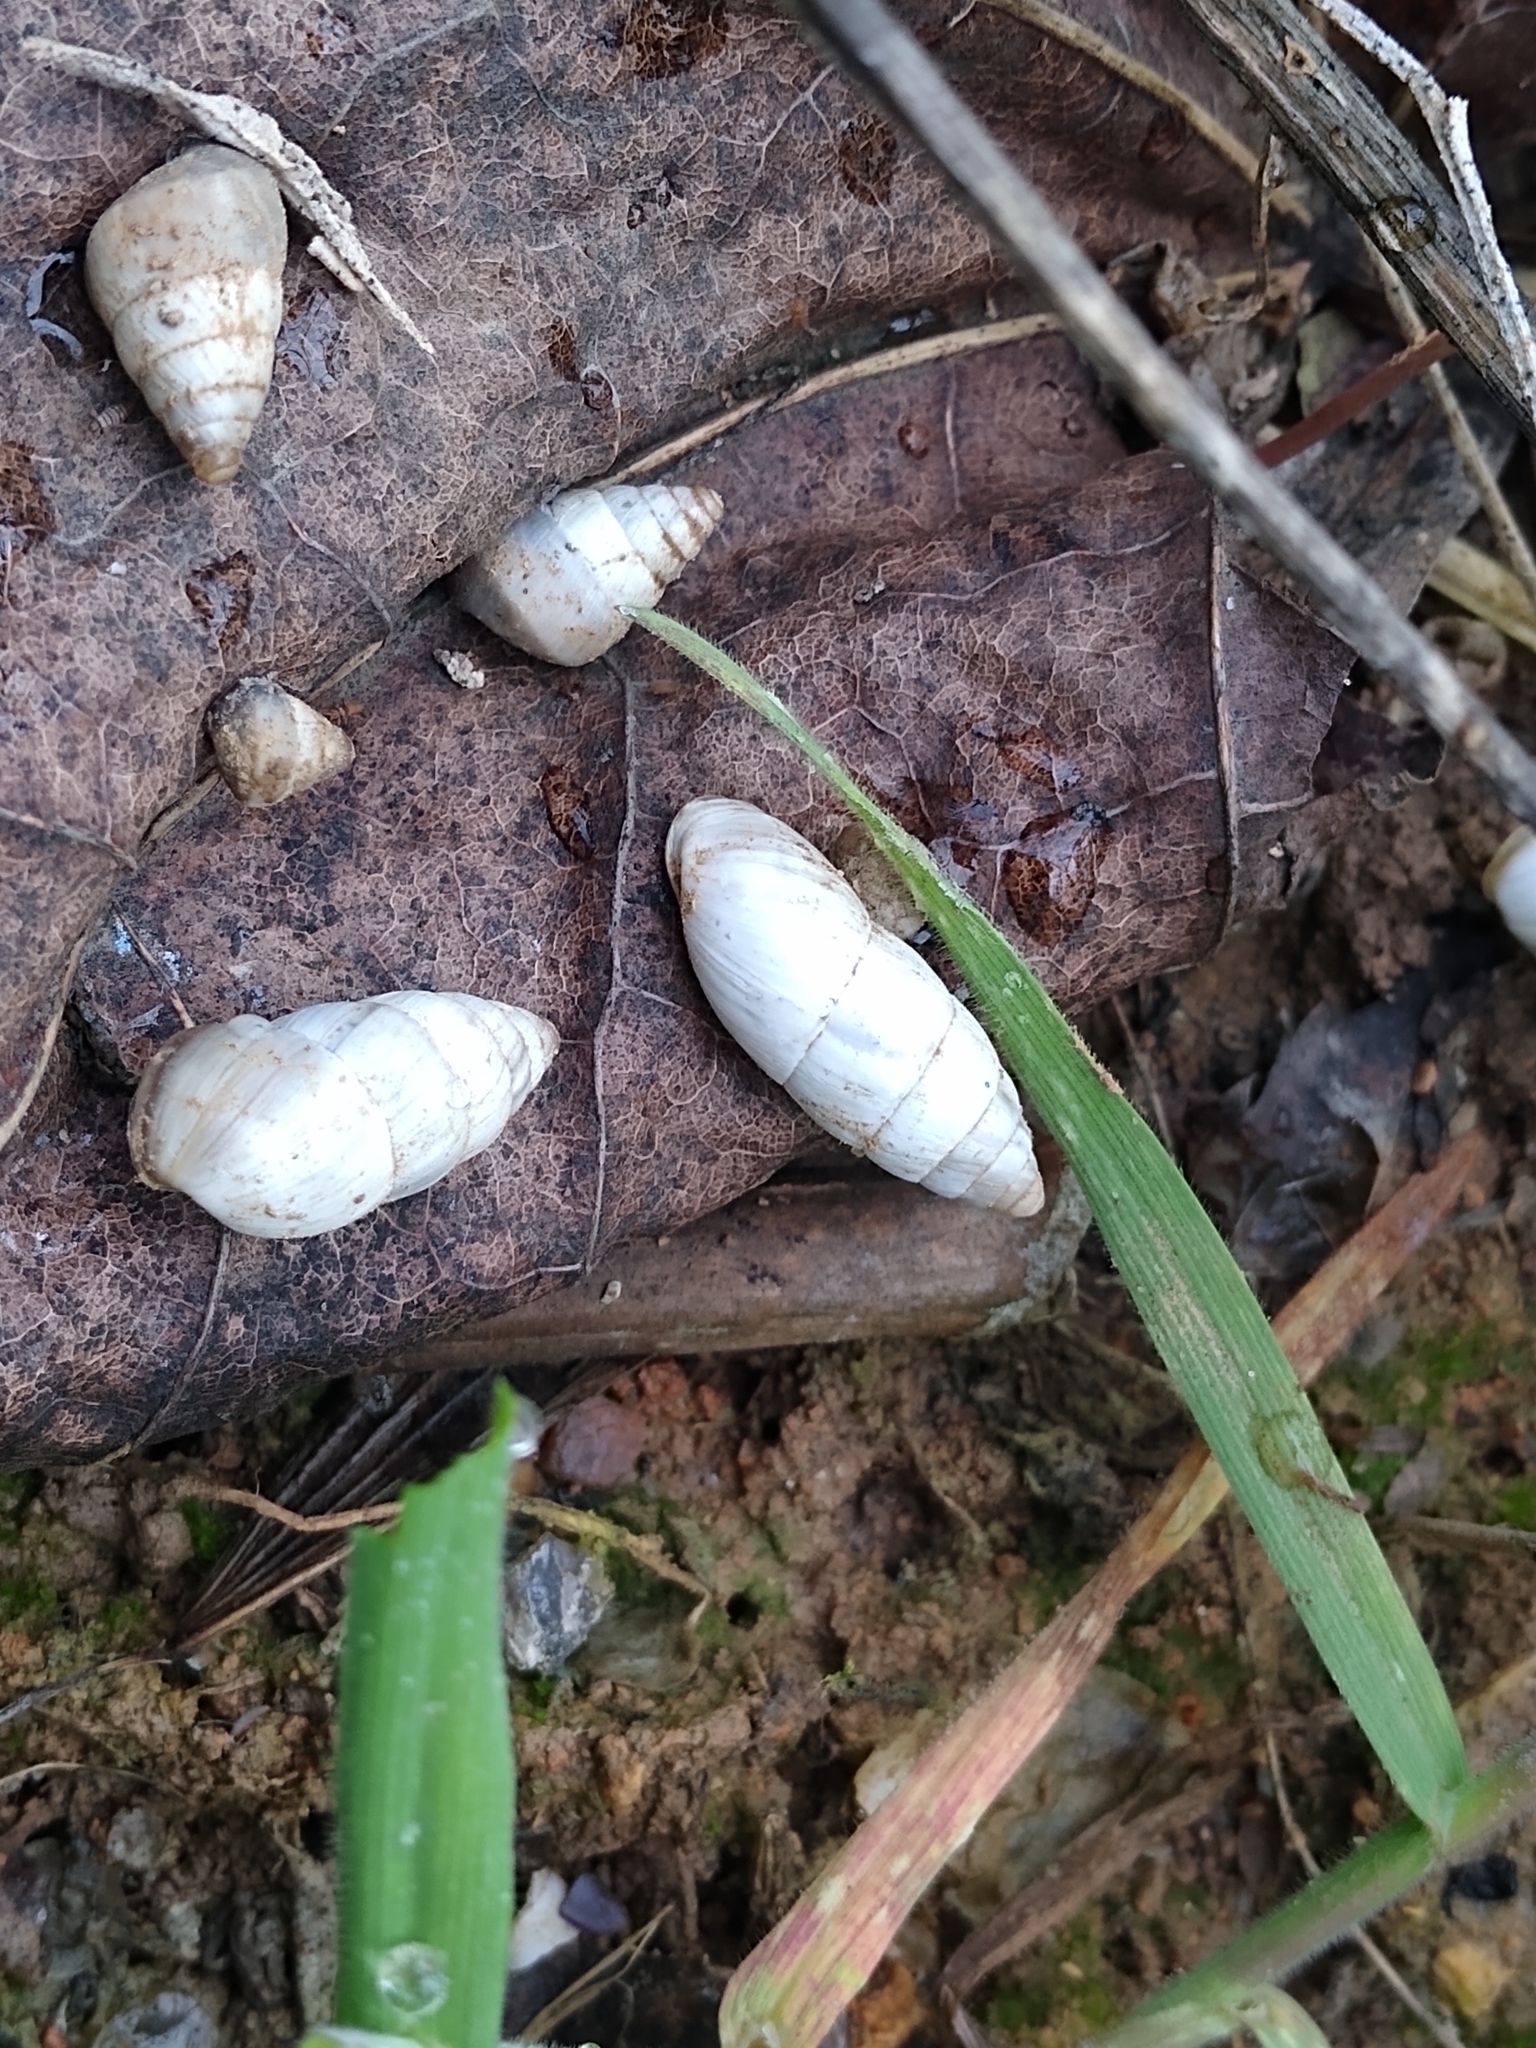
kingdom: Animalia
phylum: Mollusca
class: Gastropoda
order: Stylommatophora
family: Enidae
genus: Brephulopsis
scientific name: Brephulopsis cylindrica
